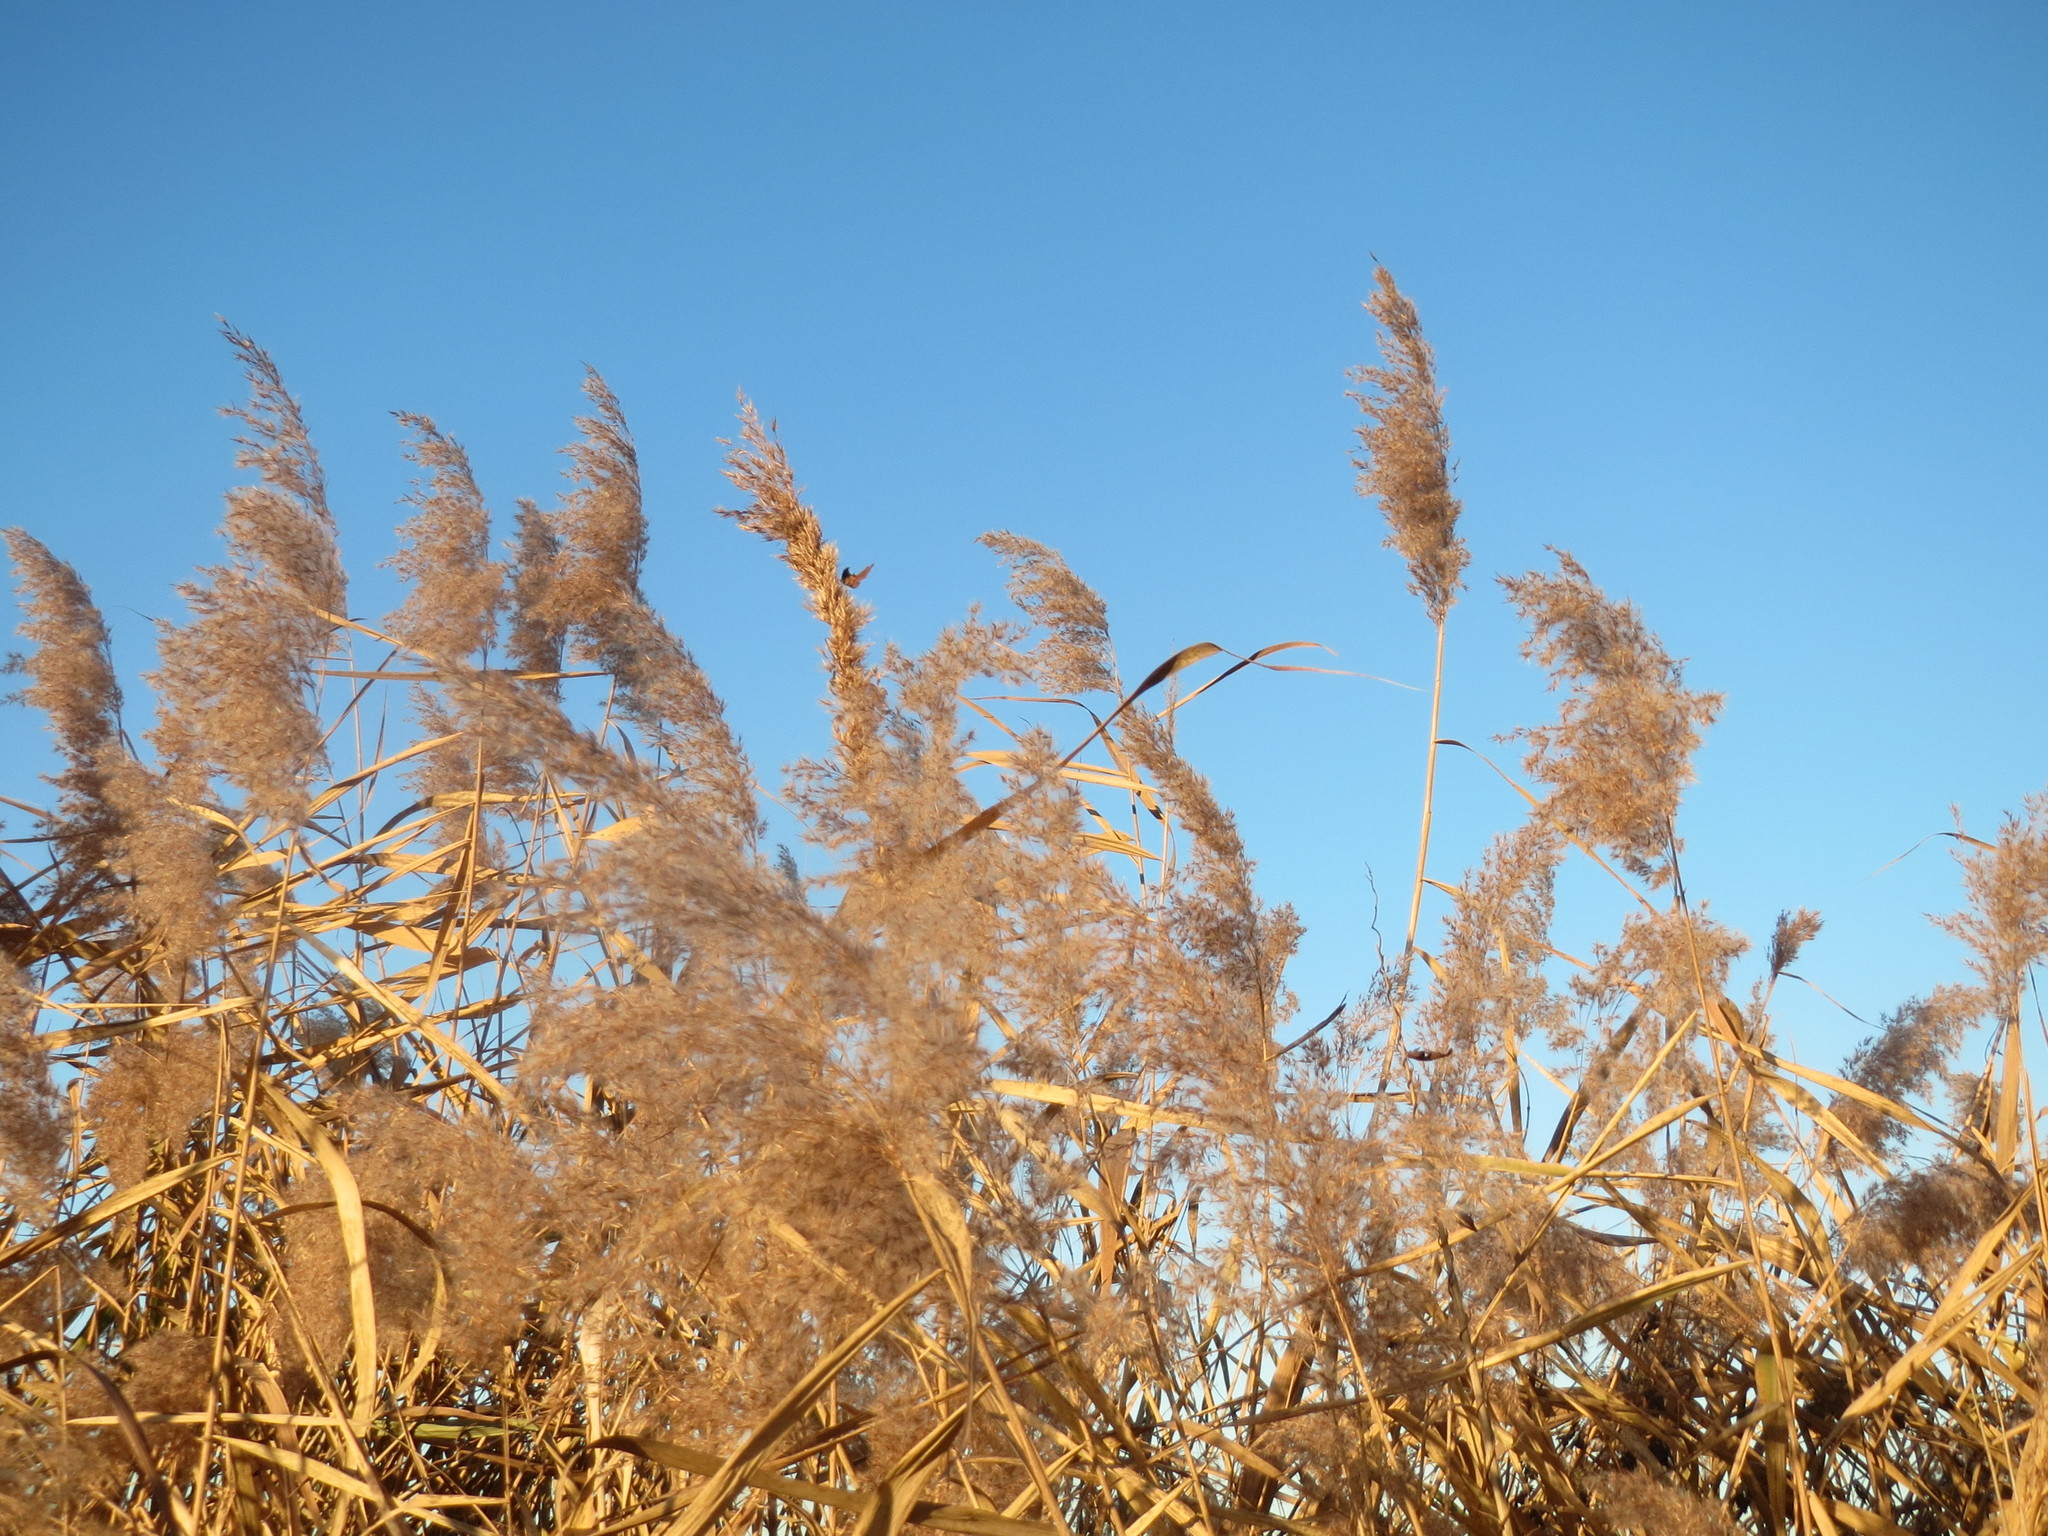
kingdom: Plantae
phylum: Tracheophyta
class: Liliopsida
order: Poales
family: Poaceae
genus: Phragmites
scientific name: Phragmites australis
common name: Common reed
